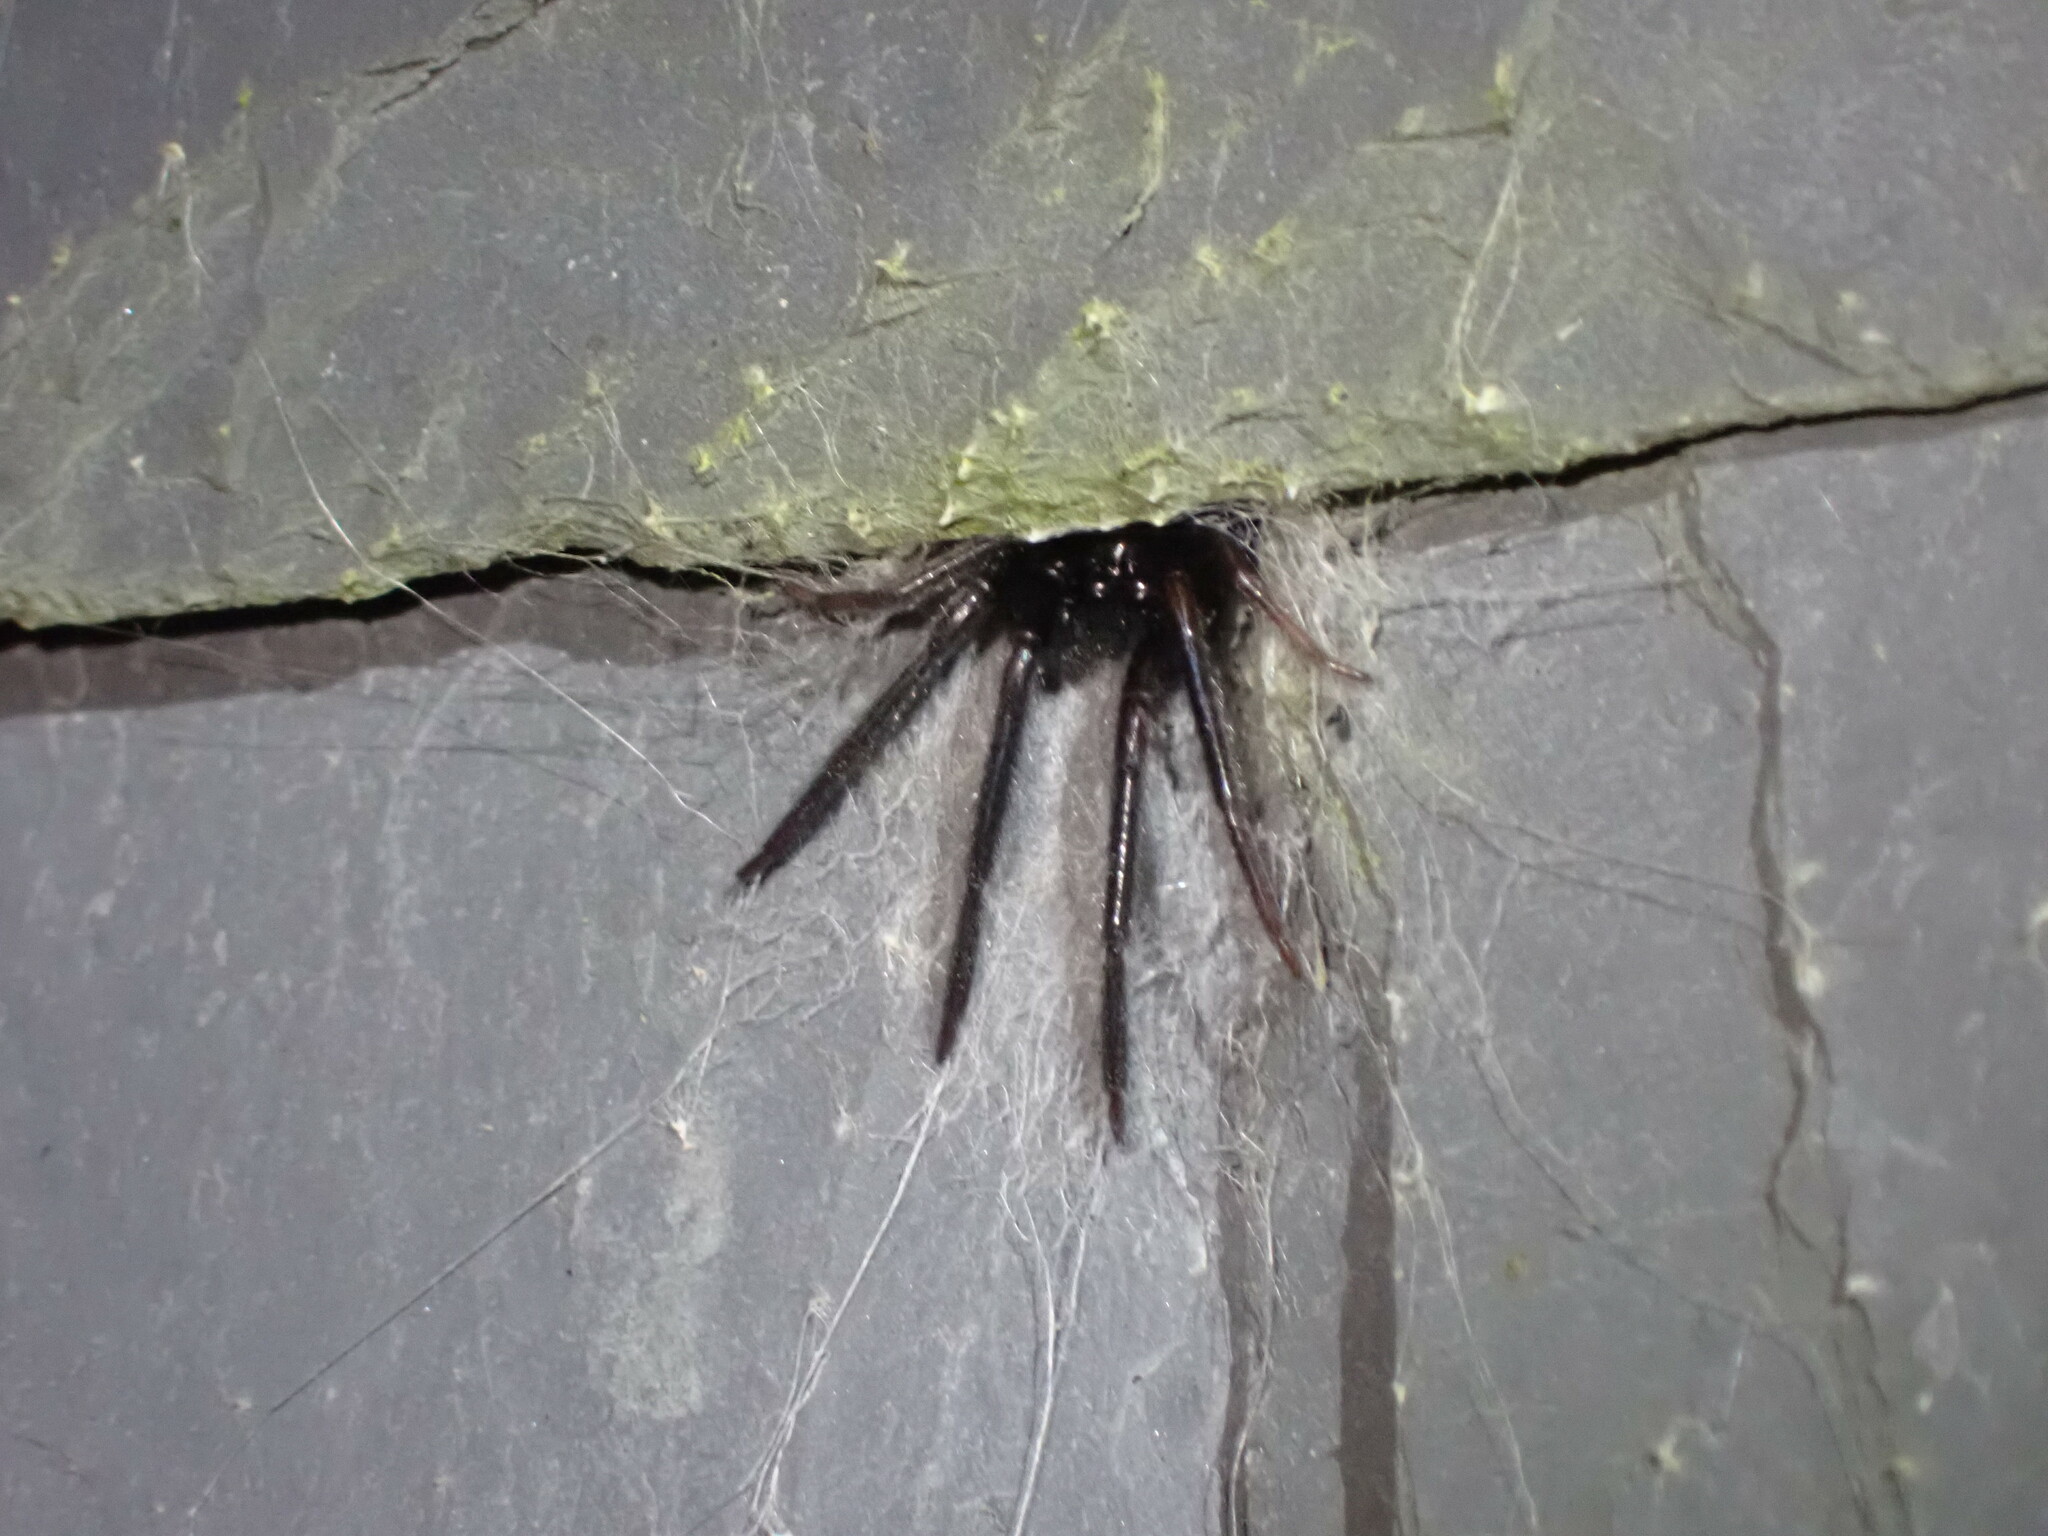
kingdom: Animalia
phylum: Arthropoda
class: Arachnida
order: Araneae
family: Segestriidae
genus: Segestria
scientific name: Segestria florentina
